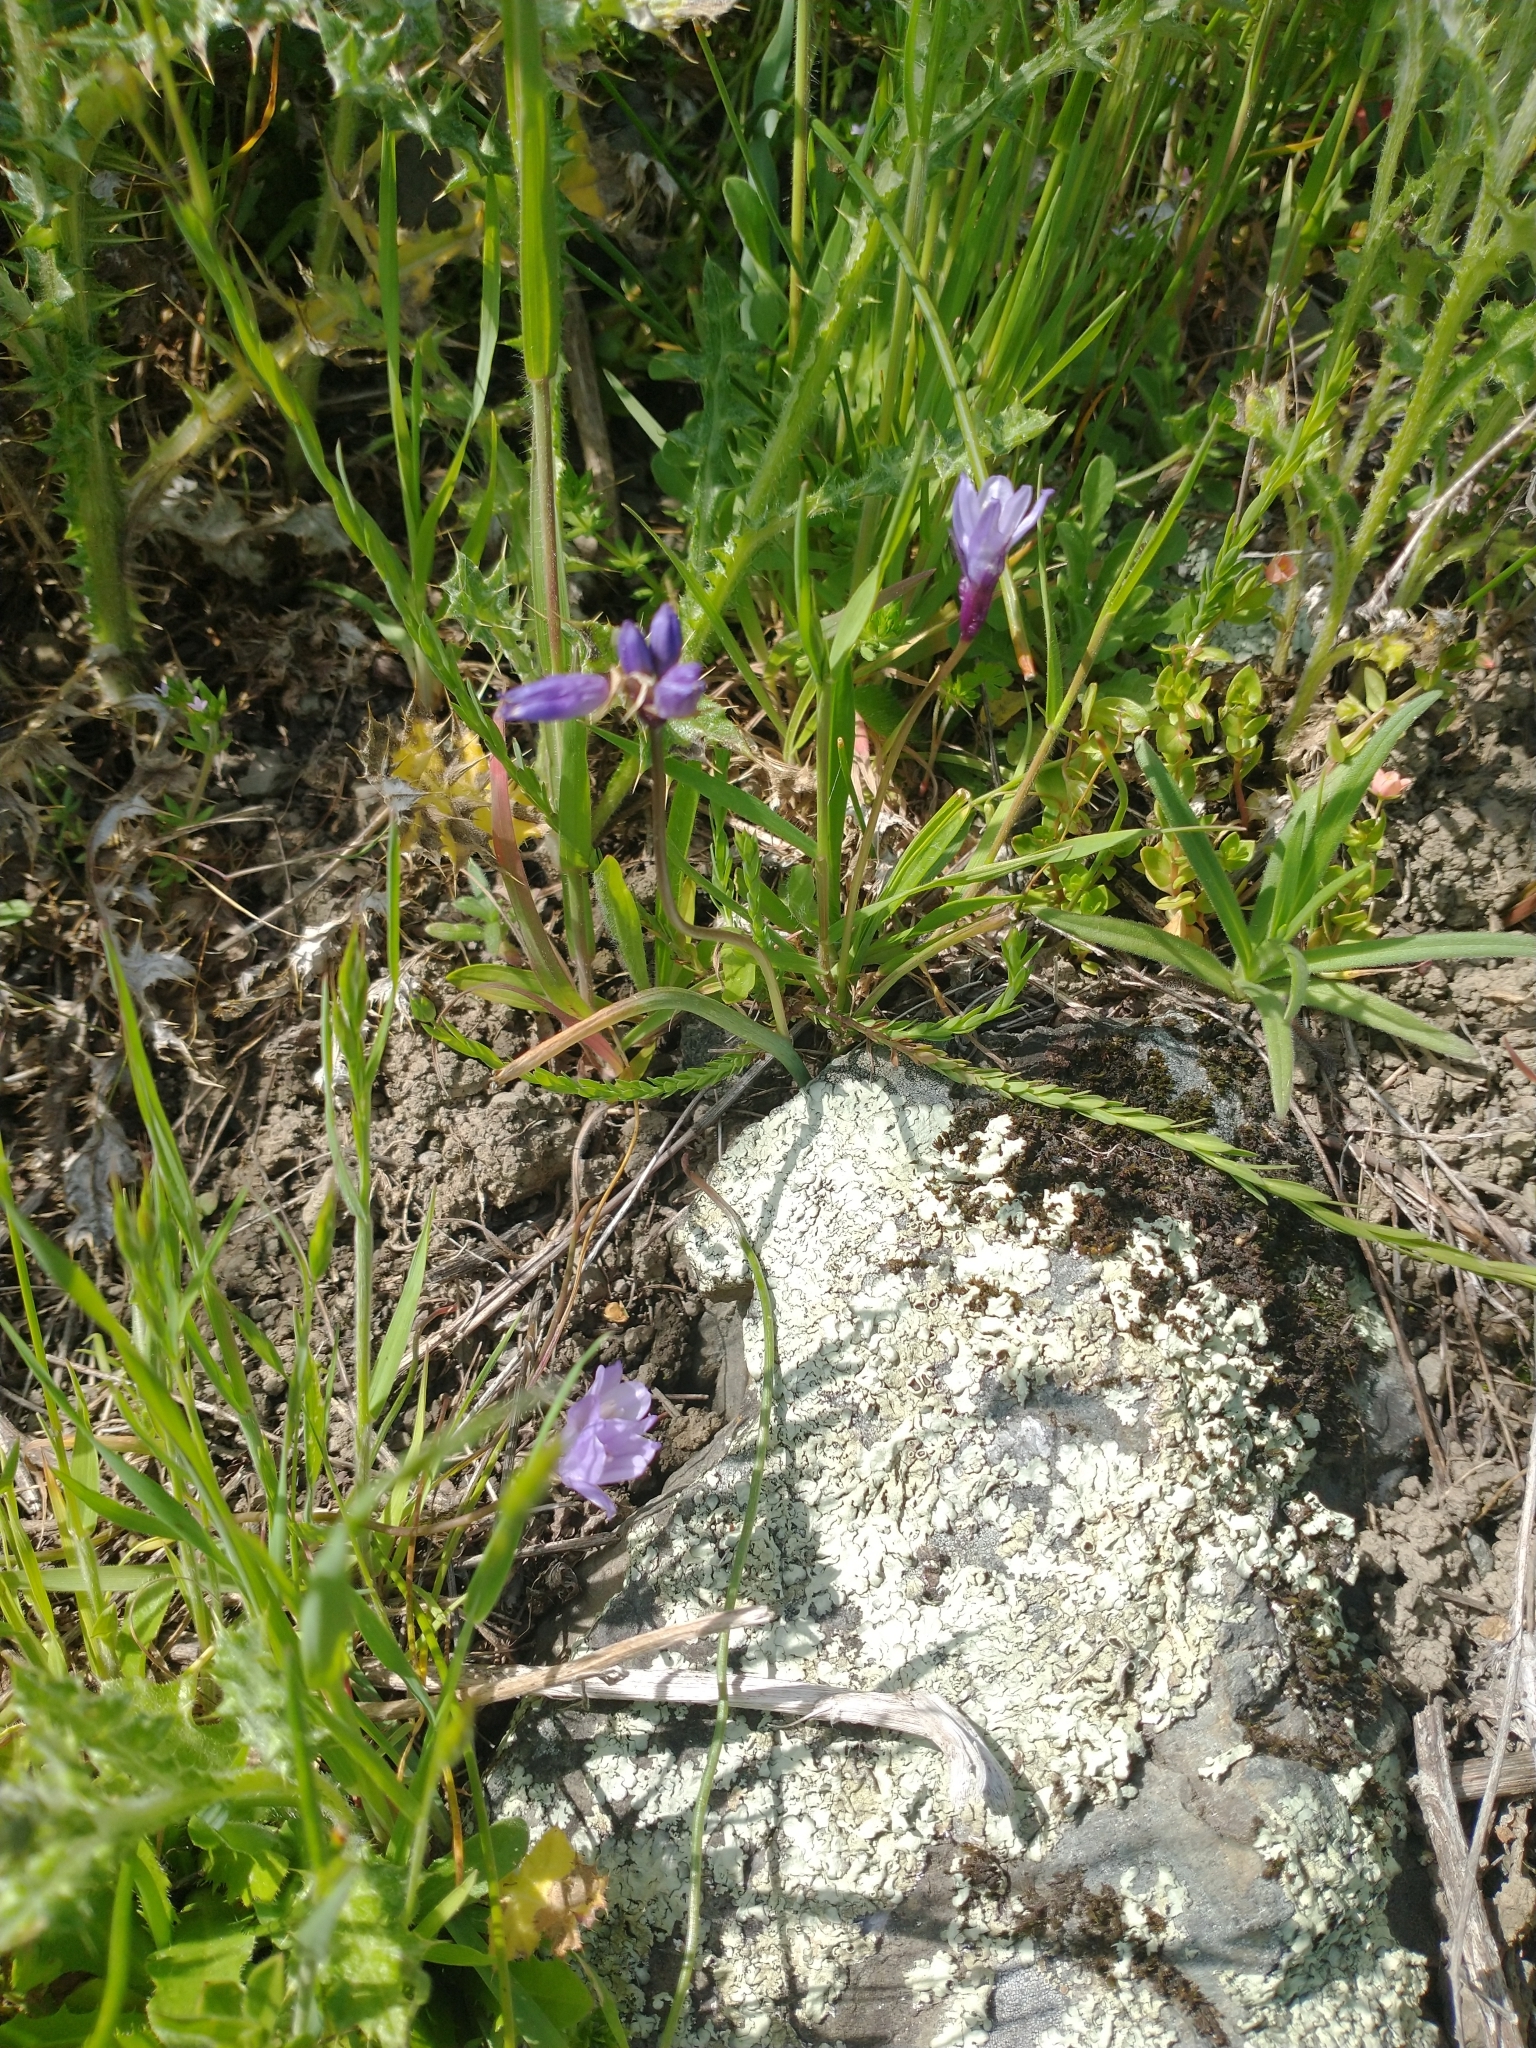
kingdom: Plantae
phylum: Tracheophyta
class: Liliopsida
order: Asparagales
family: Asparagaceae
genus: Dipterostemon
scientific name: Dipterostemon capitatus
